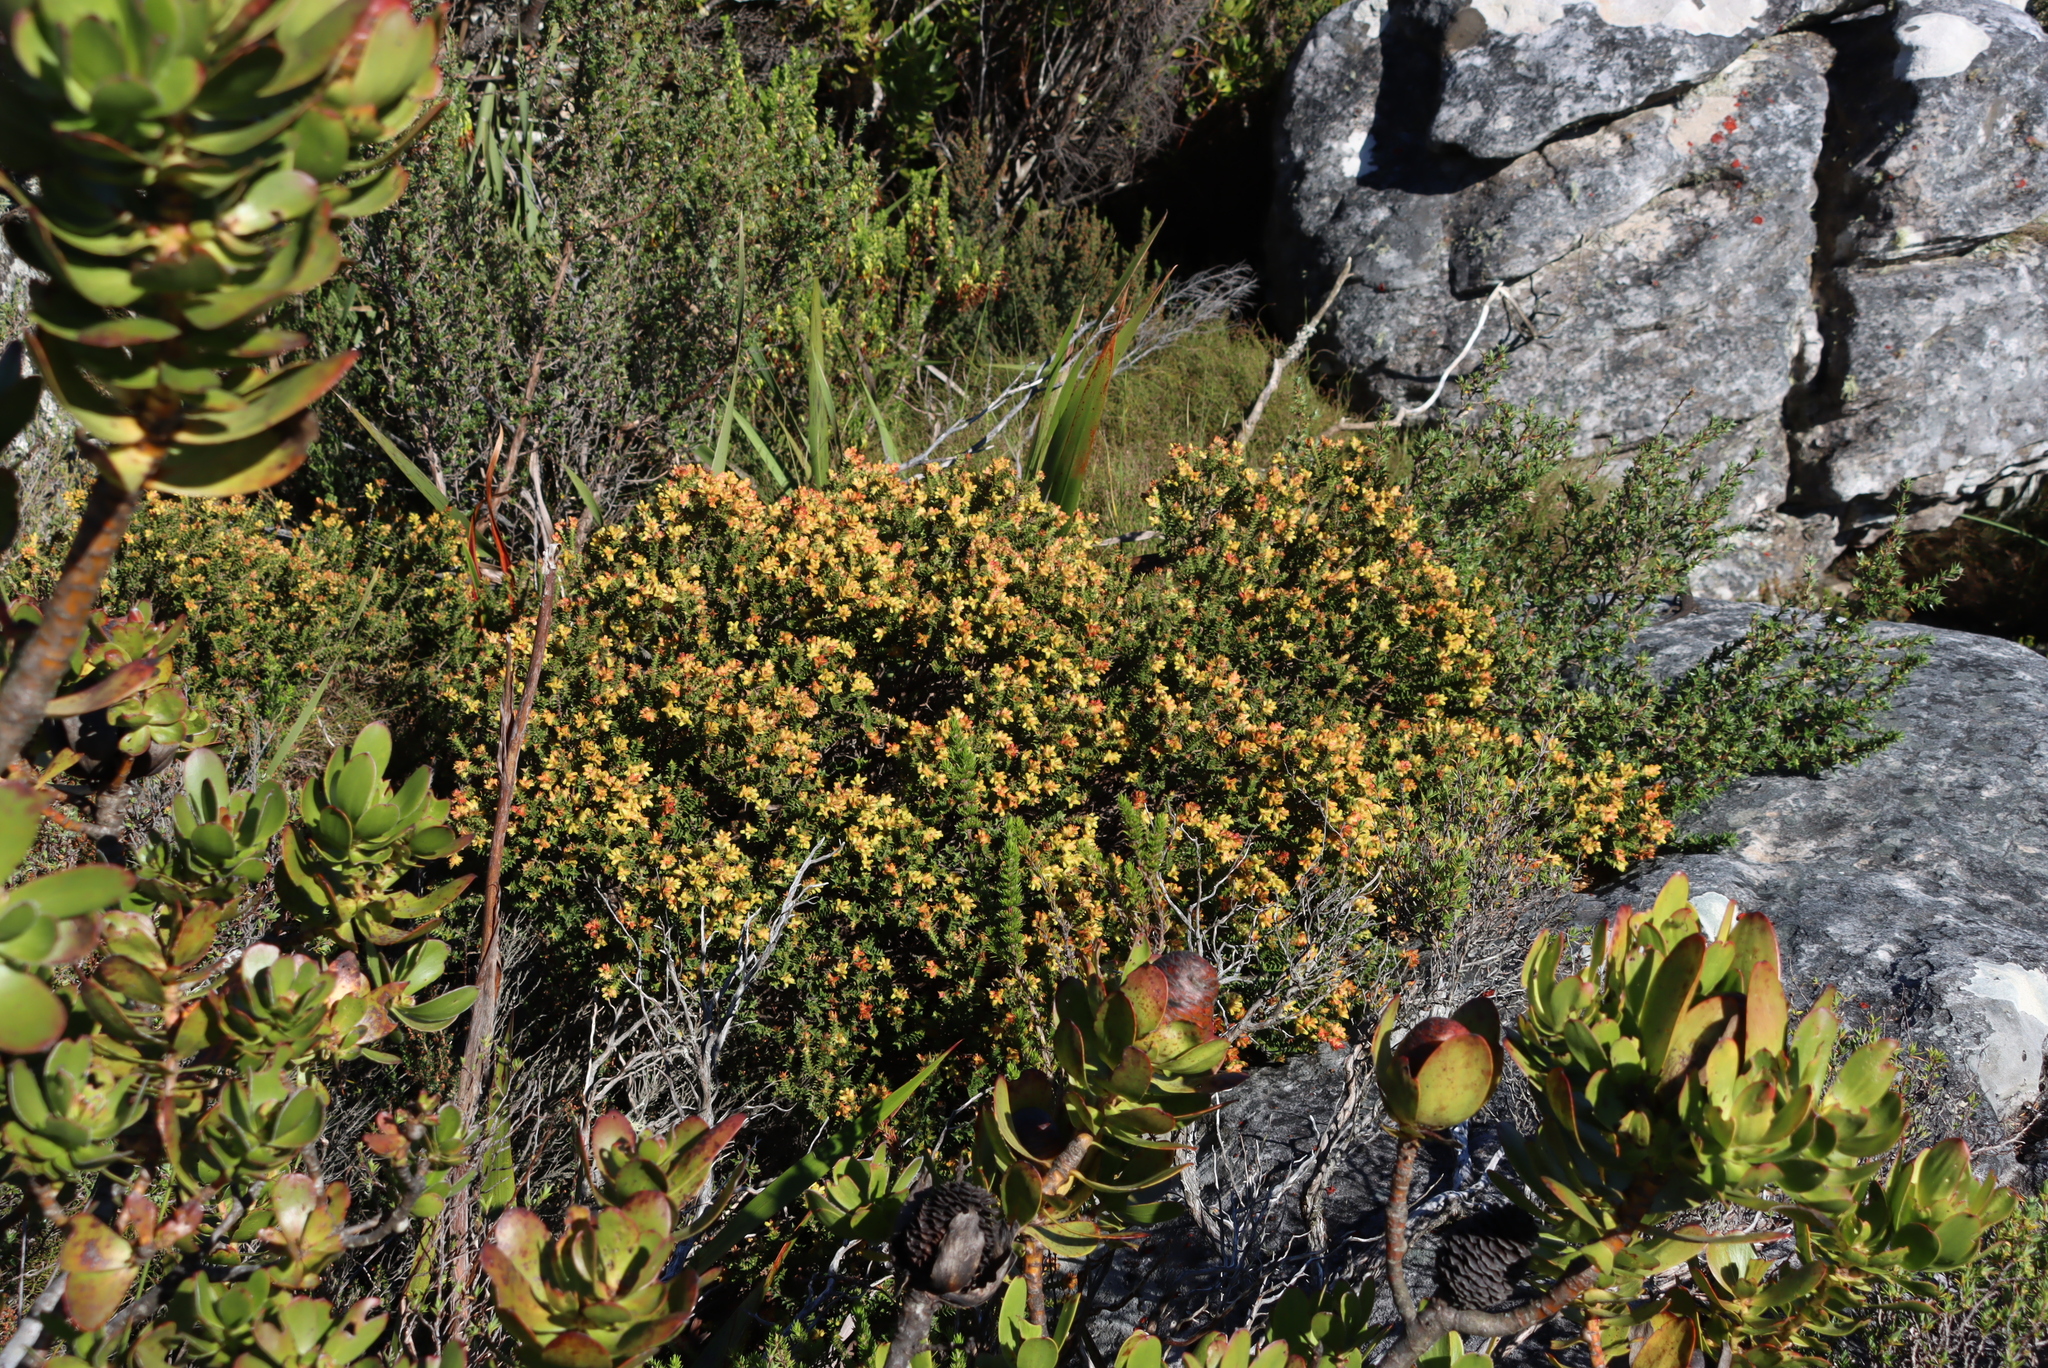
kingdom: Plantae
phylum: Tracheophyta
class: Magnoliopsida
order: Myrtales
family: Penaeaceae
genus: Penaea
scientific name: Penaea mucronata
